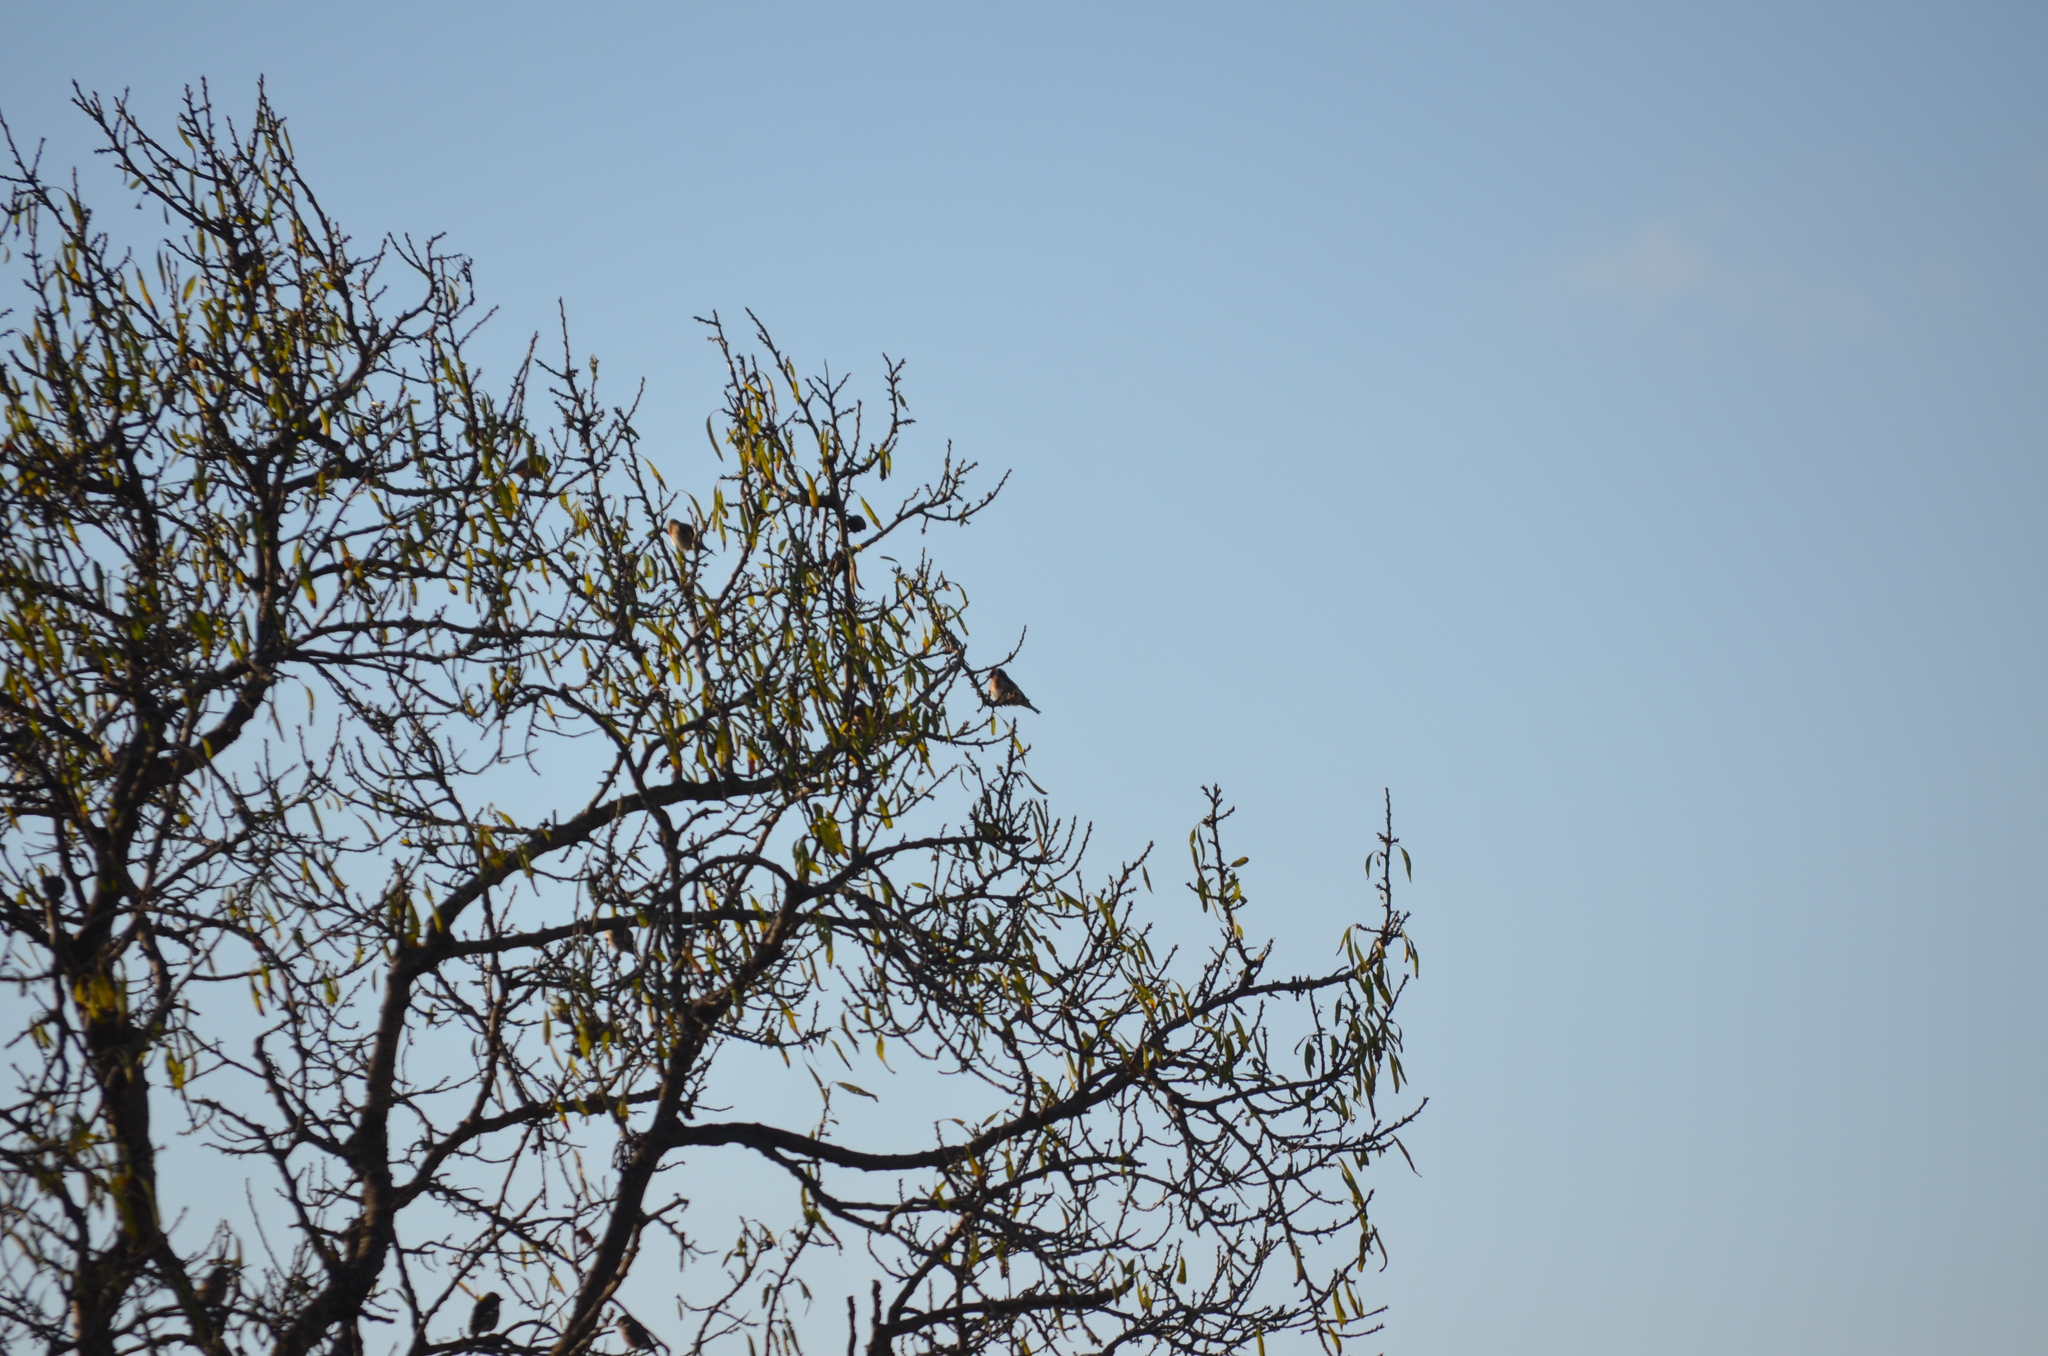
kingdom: Animalia
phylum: Chordata
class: Aves
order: Passeriformes
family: Fringillidae
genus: Carduelis
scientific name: Carduelis carduelis
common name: European goldfinch
